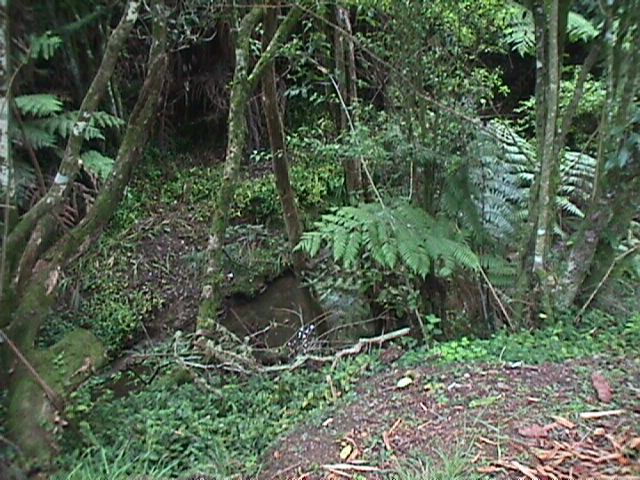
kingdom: Plantae
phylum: Tracheophyta
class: Liliopsida
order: Commelinales
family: Commelinaceae
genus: Tradescantia
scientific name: Tradescantia fluminensis
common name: Wandering-jew
